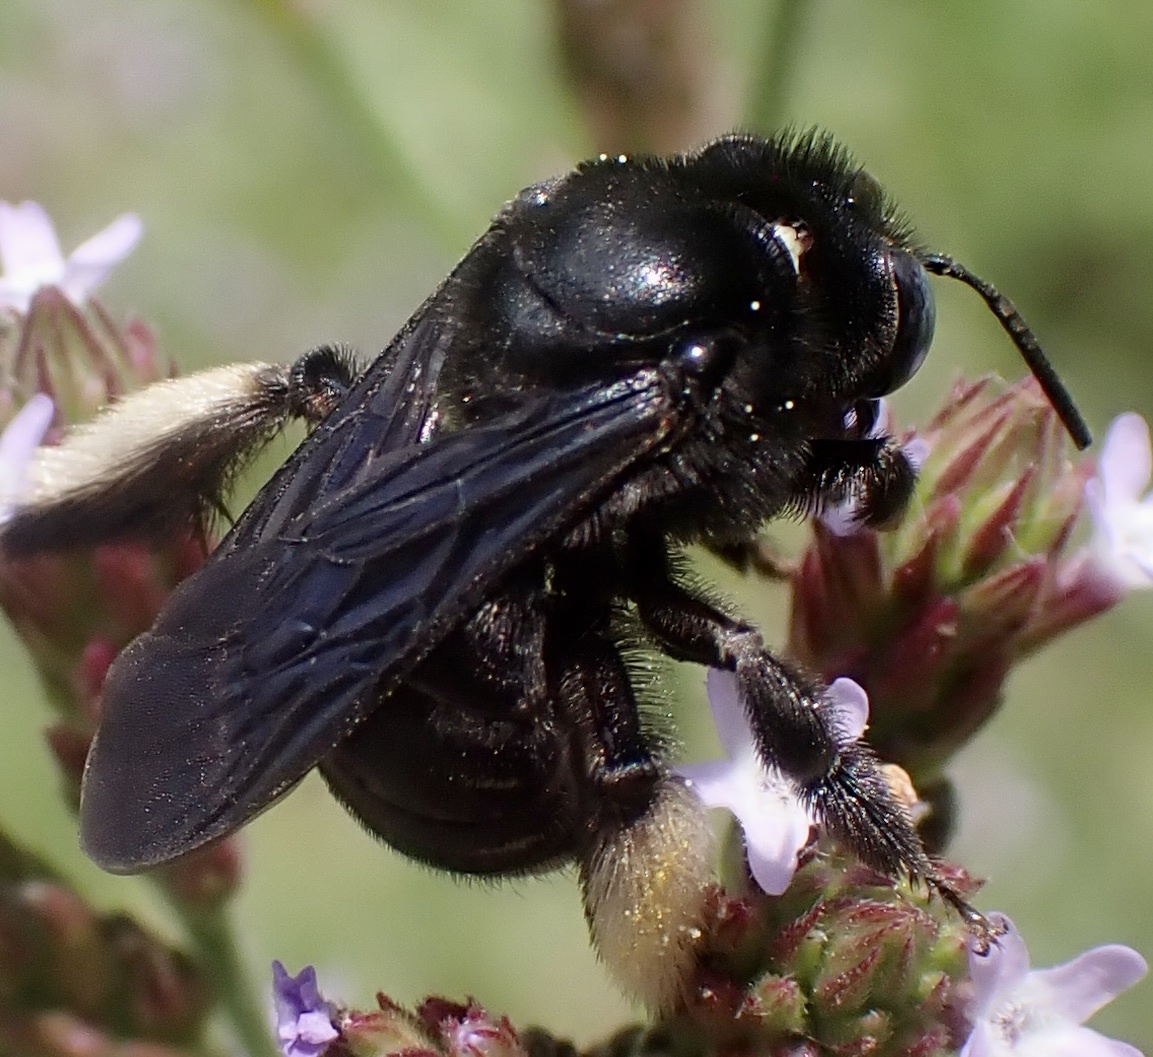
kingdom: Animalia
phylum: Arthropoda
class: Insecta
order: Hymenoptera
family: Apidae
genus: Melissodes
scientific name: Melissodes bimaculatus
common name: Two-spotted long-horned bee
